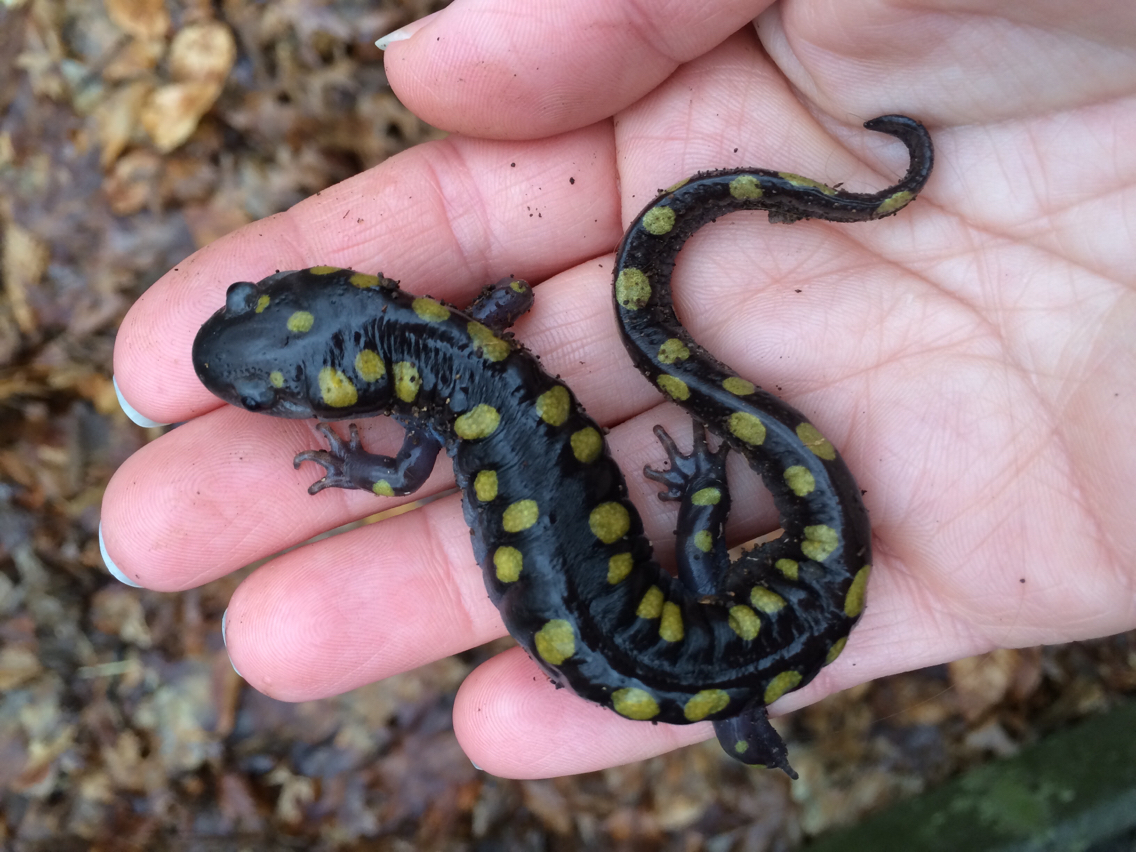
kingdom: Animalia
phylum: Chordata
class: Amphibia
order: Caudata
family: Ambystomatidae
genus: Ambystoma
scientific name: Ambystoma maculatum
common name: Spotted salamander
